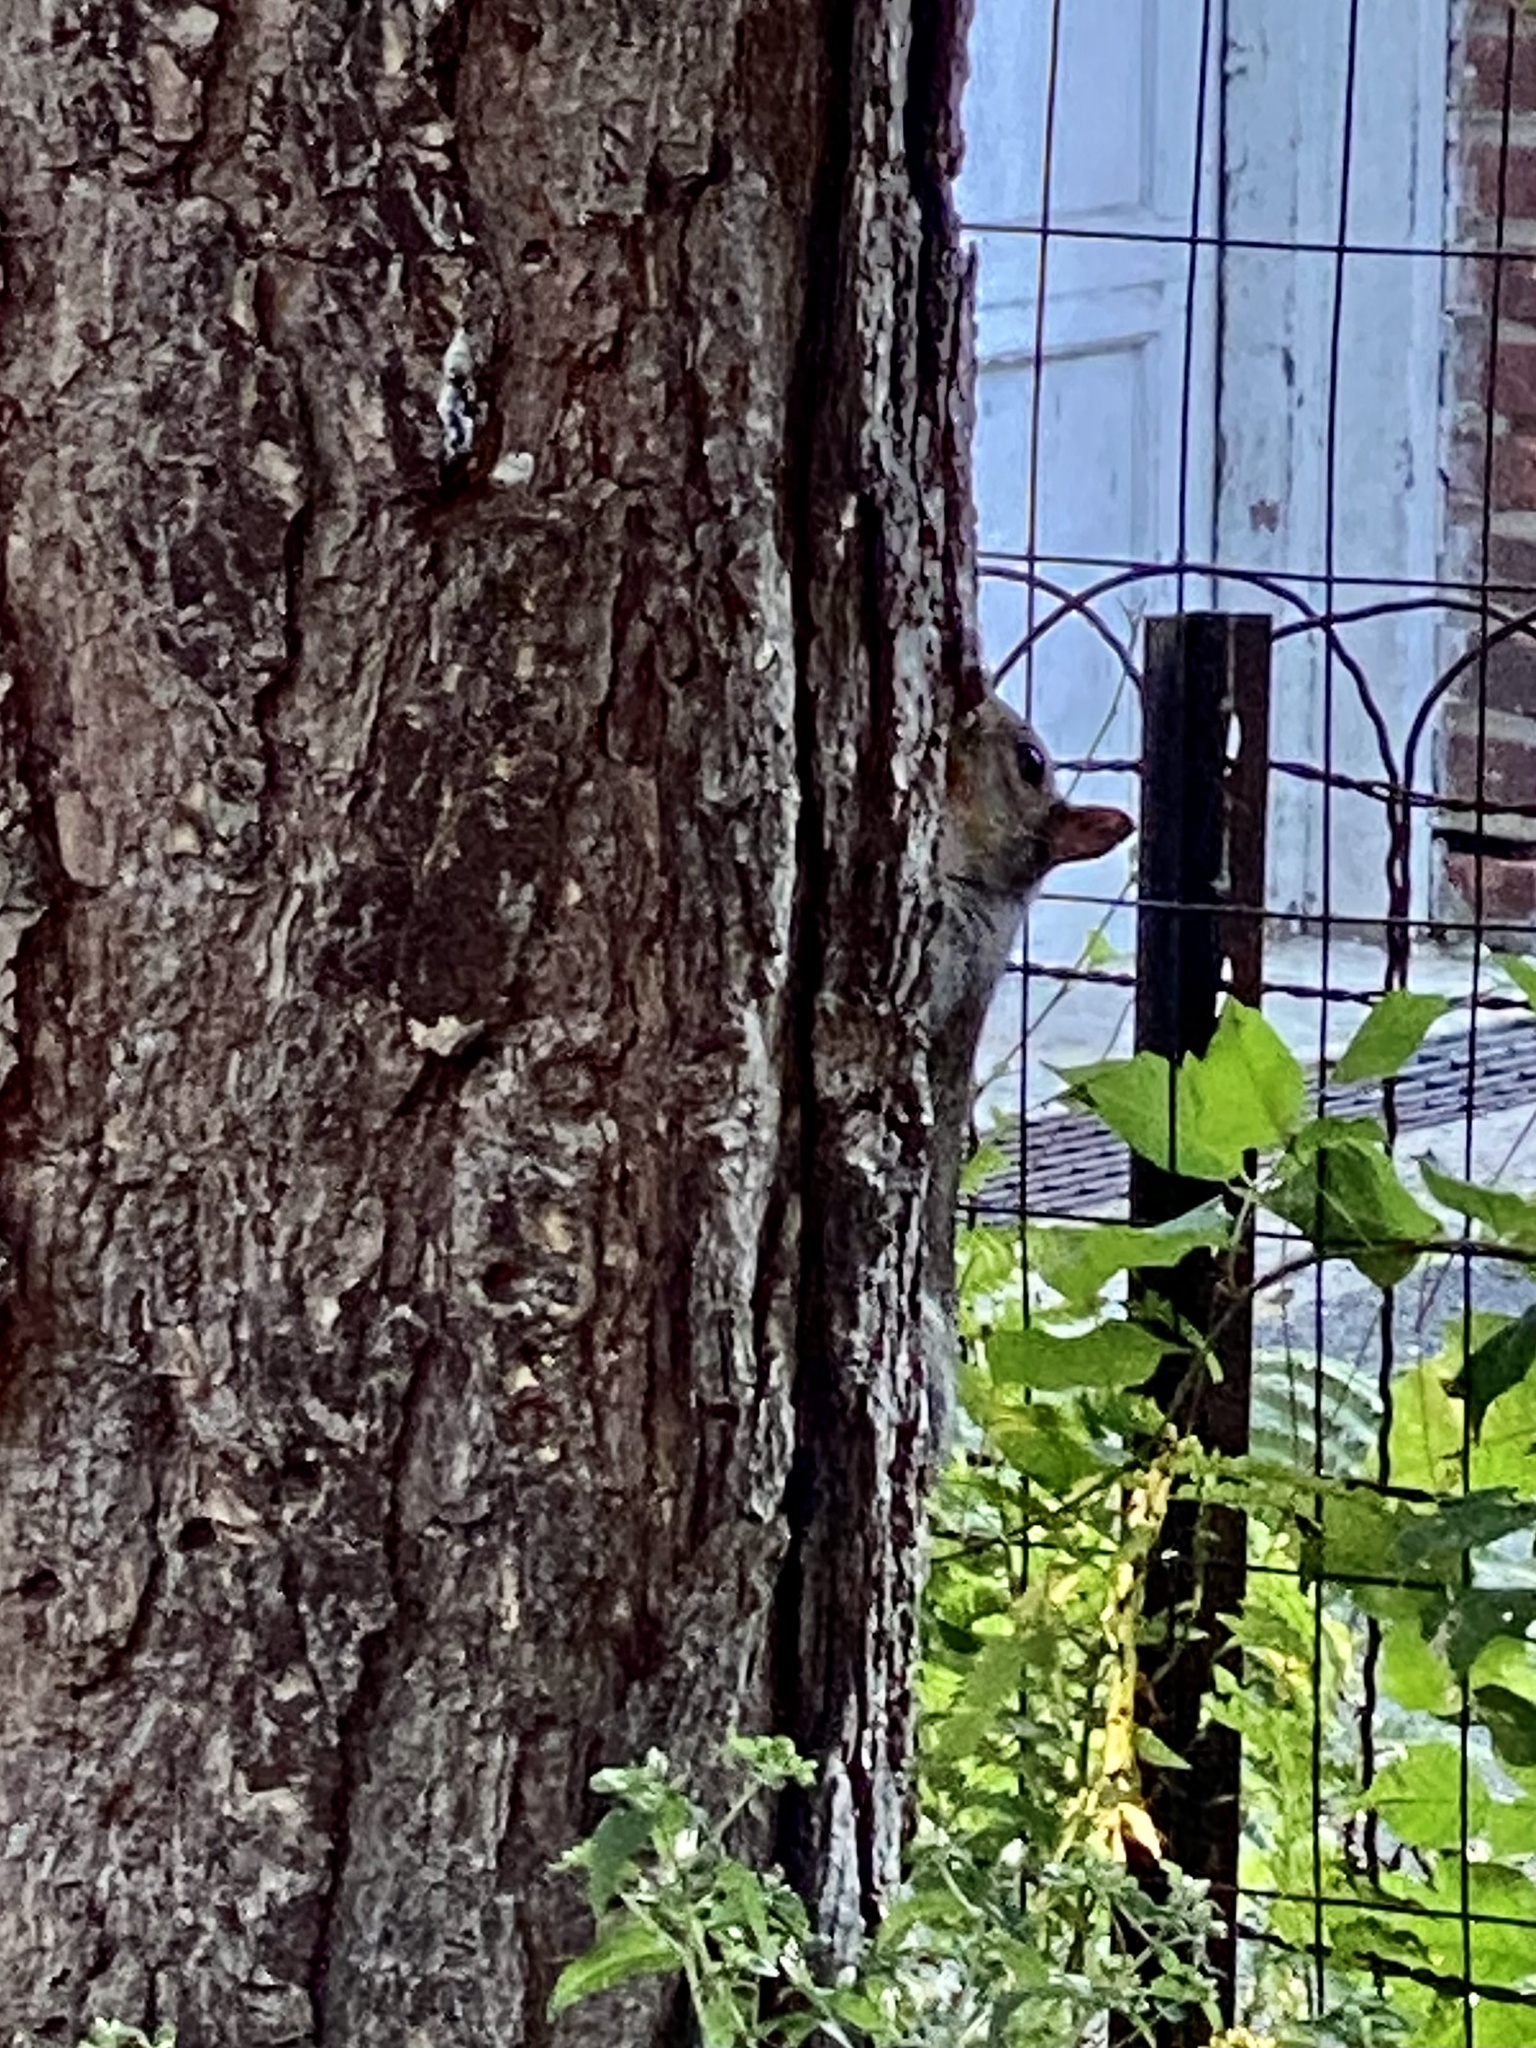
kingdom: Animalia
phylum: Chordata
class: Mammalia
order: Rodentia
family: Sciuridae
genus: Sciurus
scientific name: Sciurus carolinensis
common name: Eastern gray squirrel
